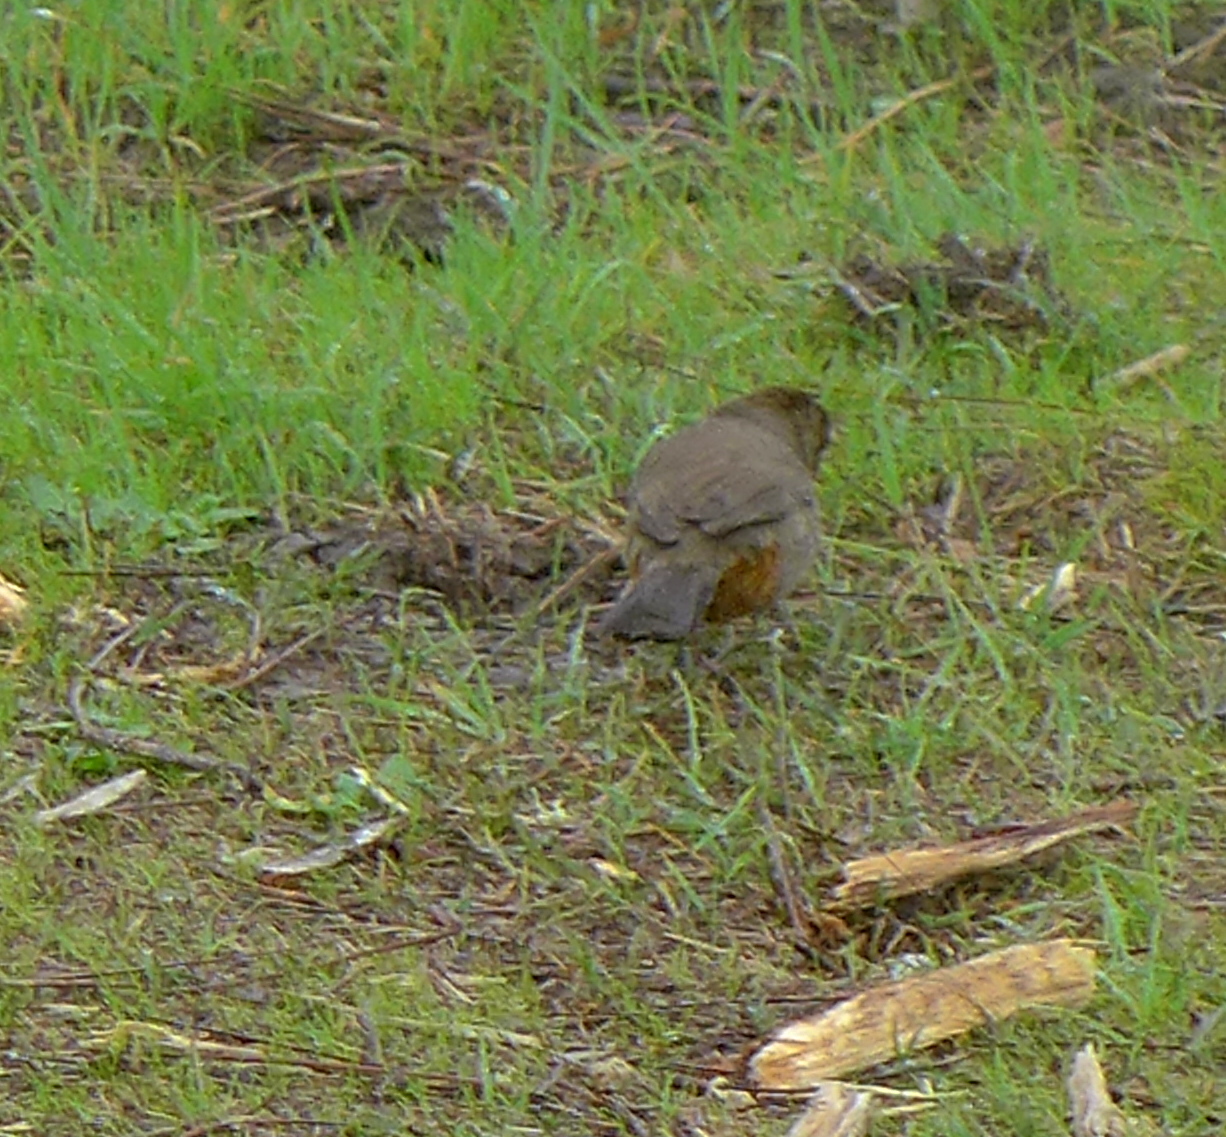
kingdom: Animalia
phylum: Chordata
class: Aves
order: Passeriformes
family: Passerellidae
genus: Melozone
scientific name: Melozone crissalis
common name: California towhee
